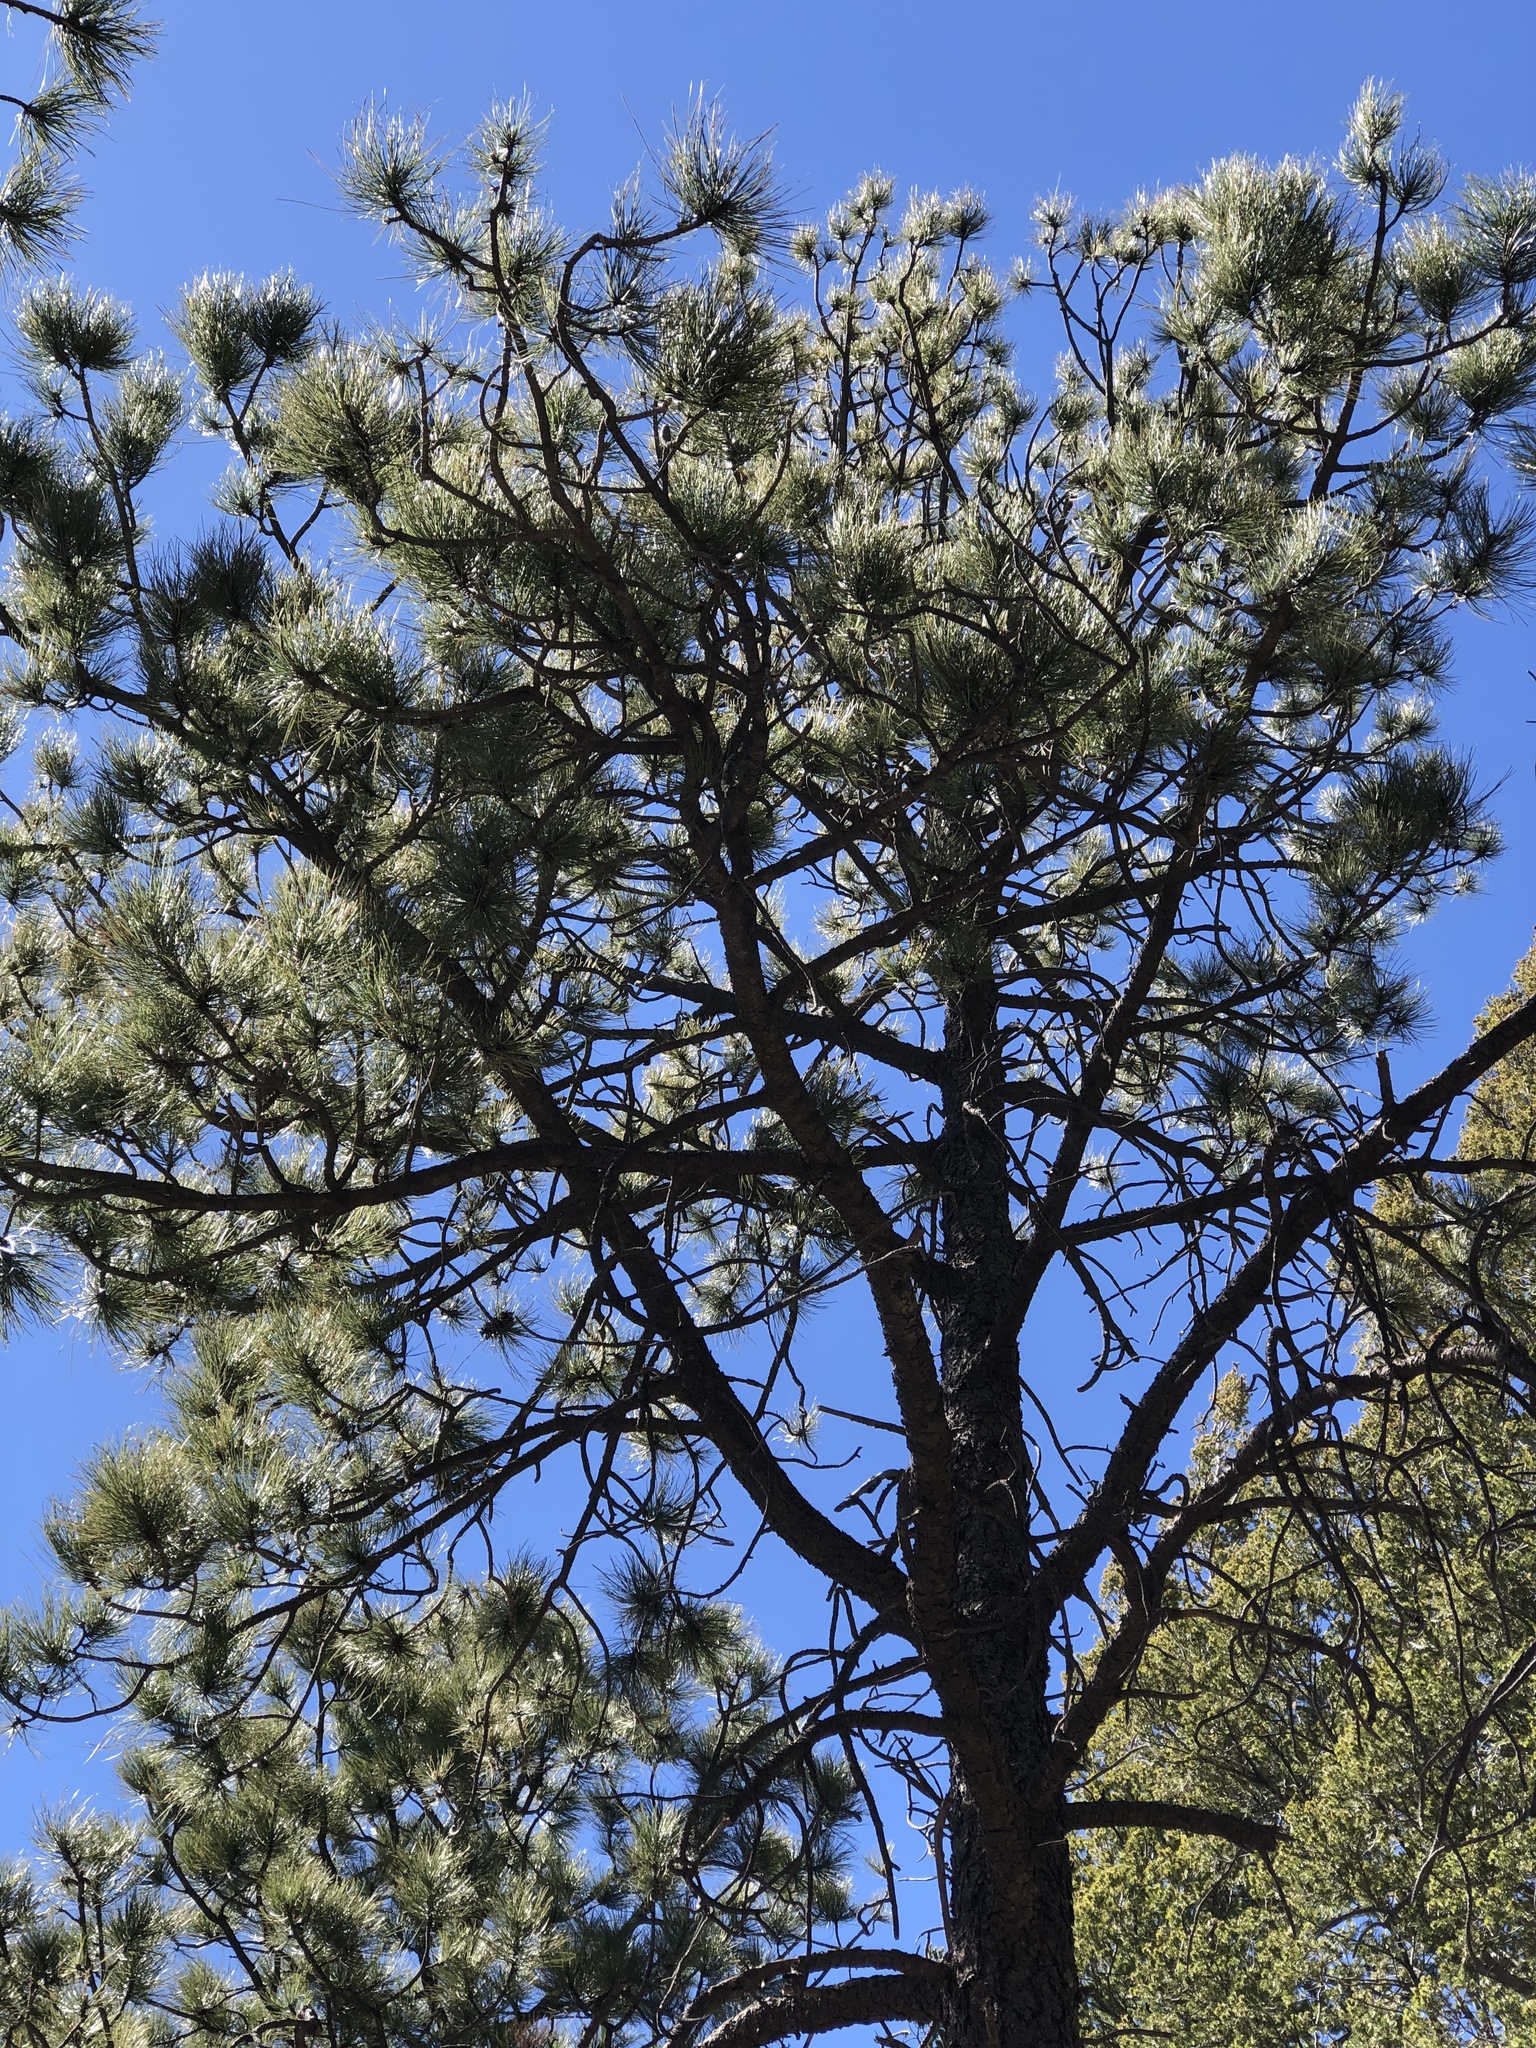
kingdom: Plantae
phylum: Tracheophyta
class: Pinopsida
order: Pinales
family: Pinaceae
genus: Pinus
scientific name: Pinus ponderosa
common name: Western yellow-pine
